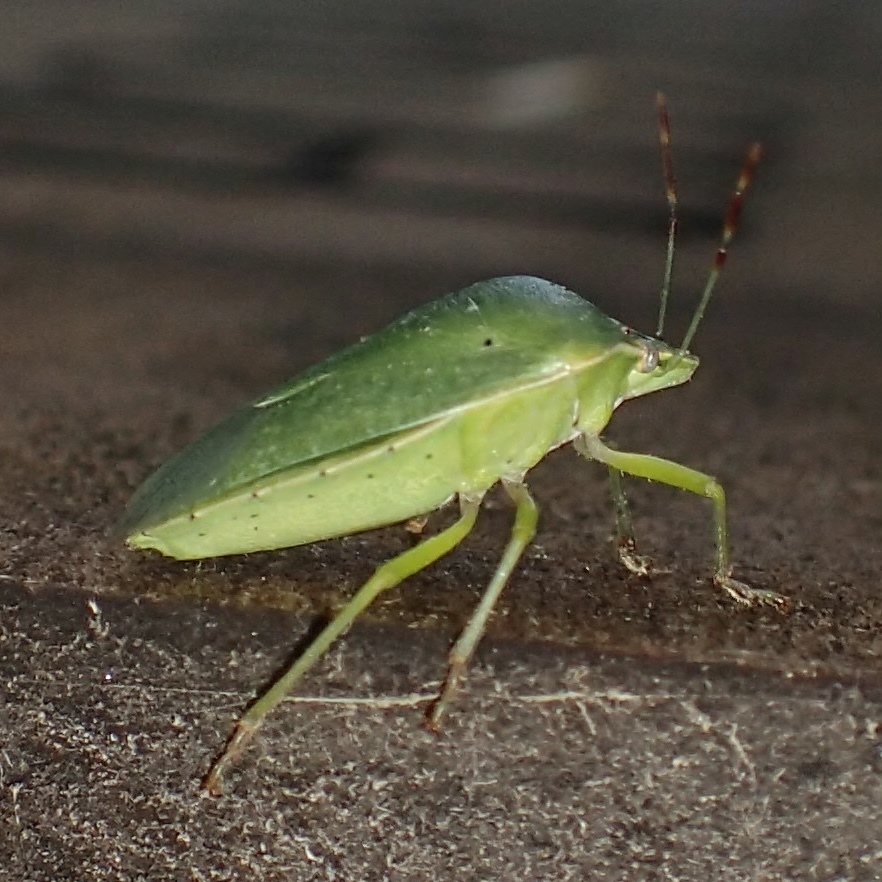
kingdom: Animalia
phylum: Arthropoda
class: Insecta
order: Hemiptera
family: Pentatomidae
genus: Nezara
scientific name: Nezara viridula
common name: Southern green stink bug
